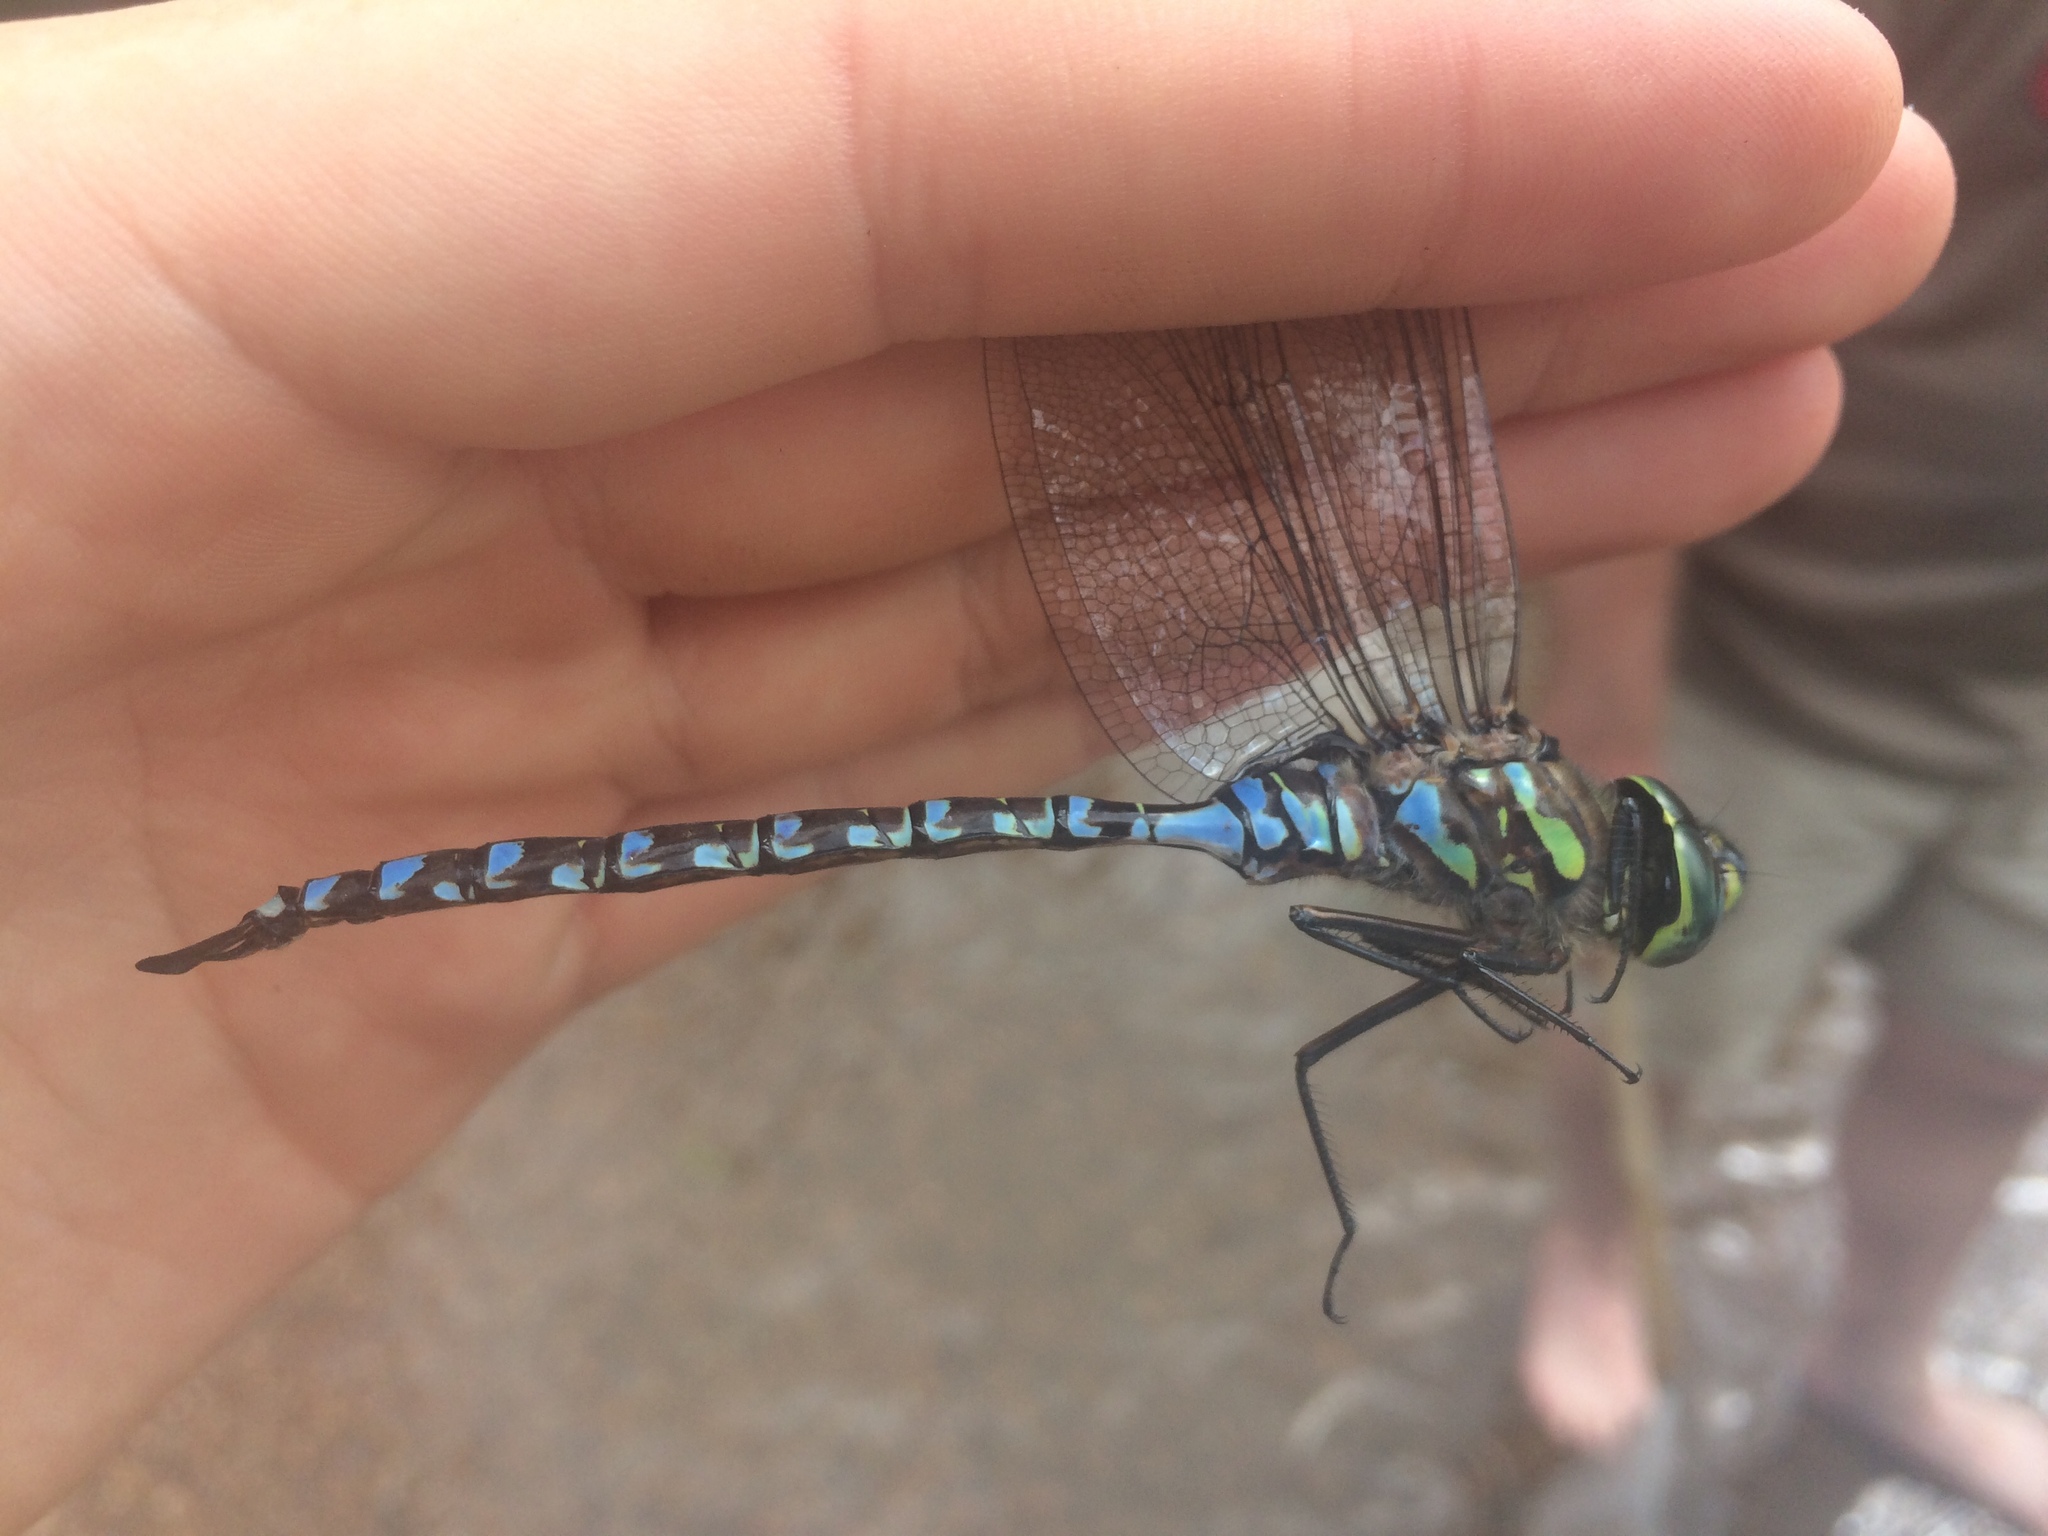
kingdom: Animalia
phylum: Arthropoda
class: Insecta
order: Odonata
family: Aeshnidae
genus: Aeshna
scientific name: Aeshna eremita
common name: Lake darner
